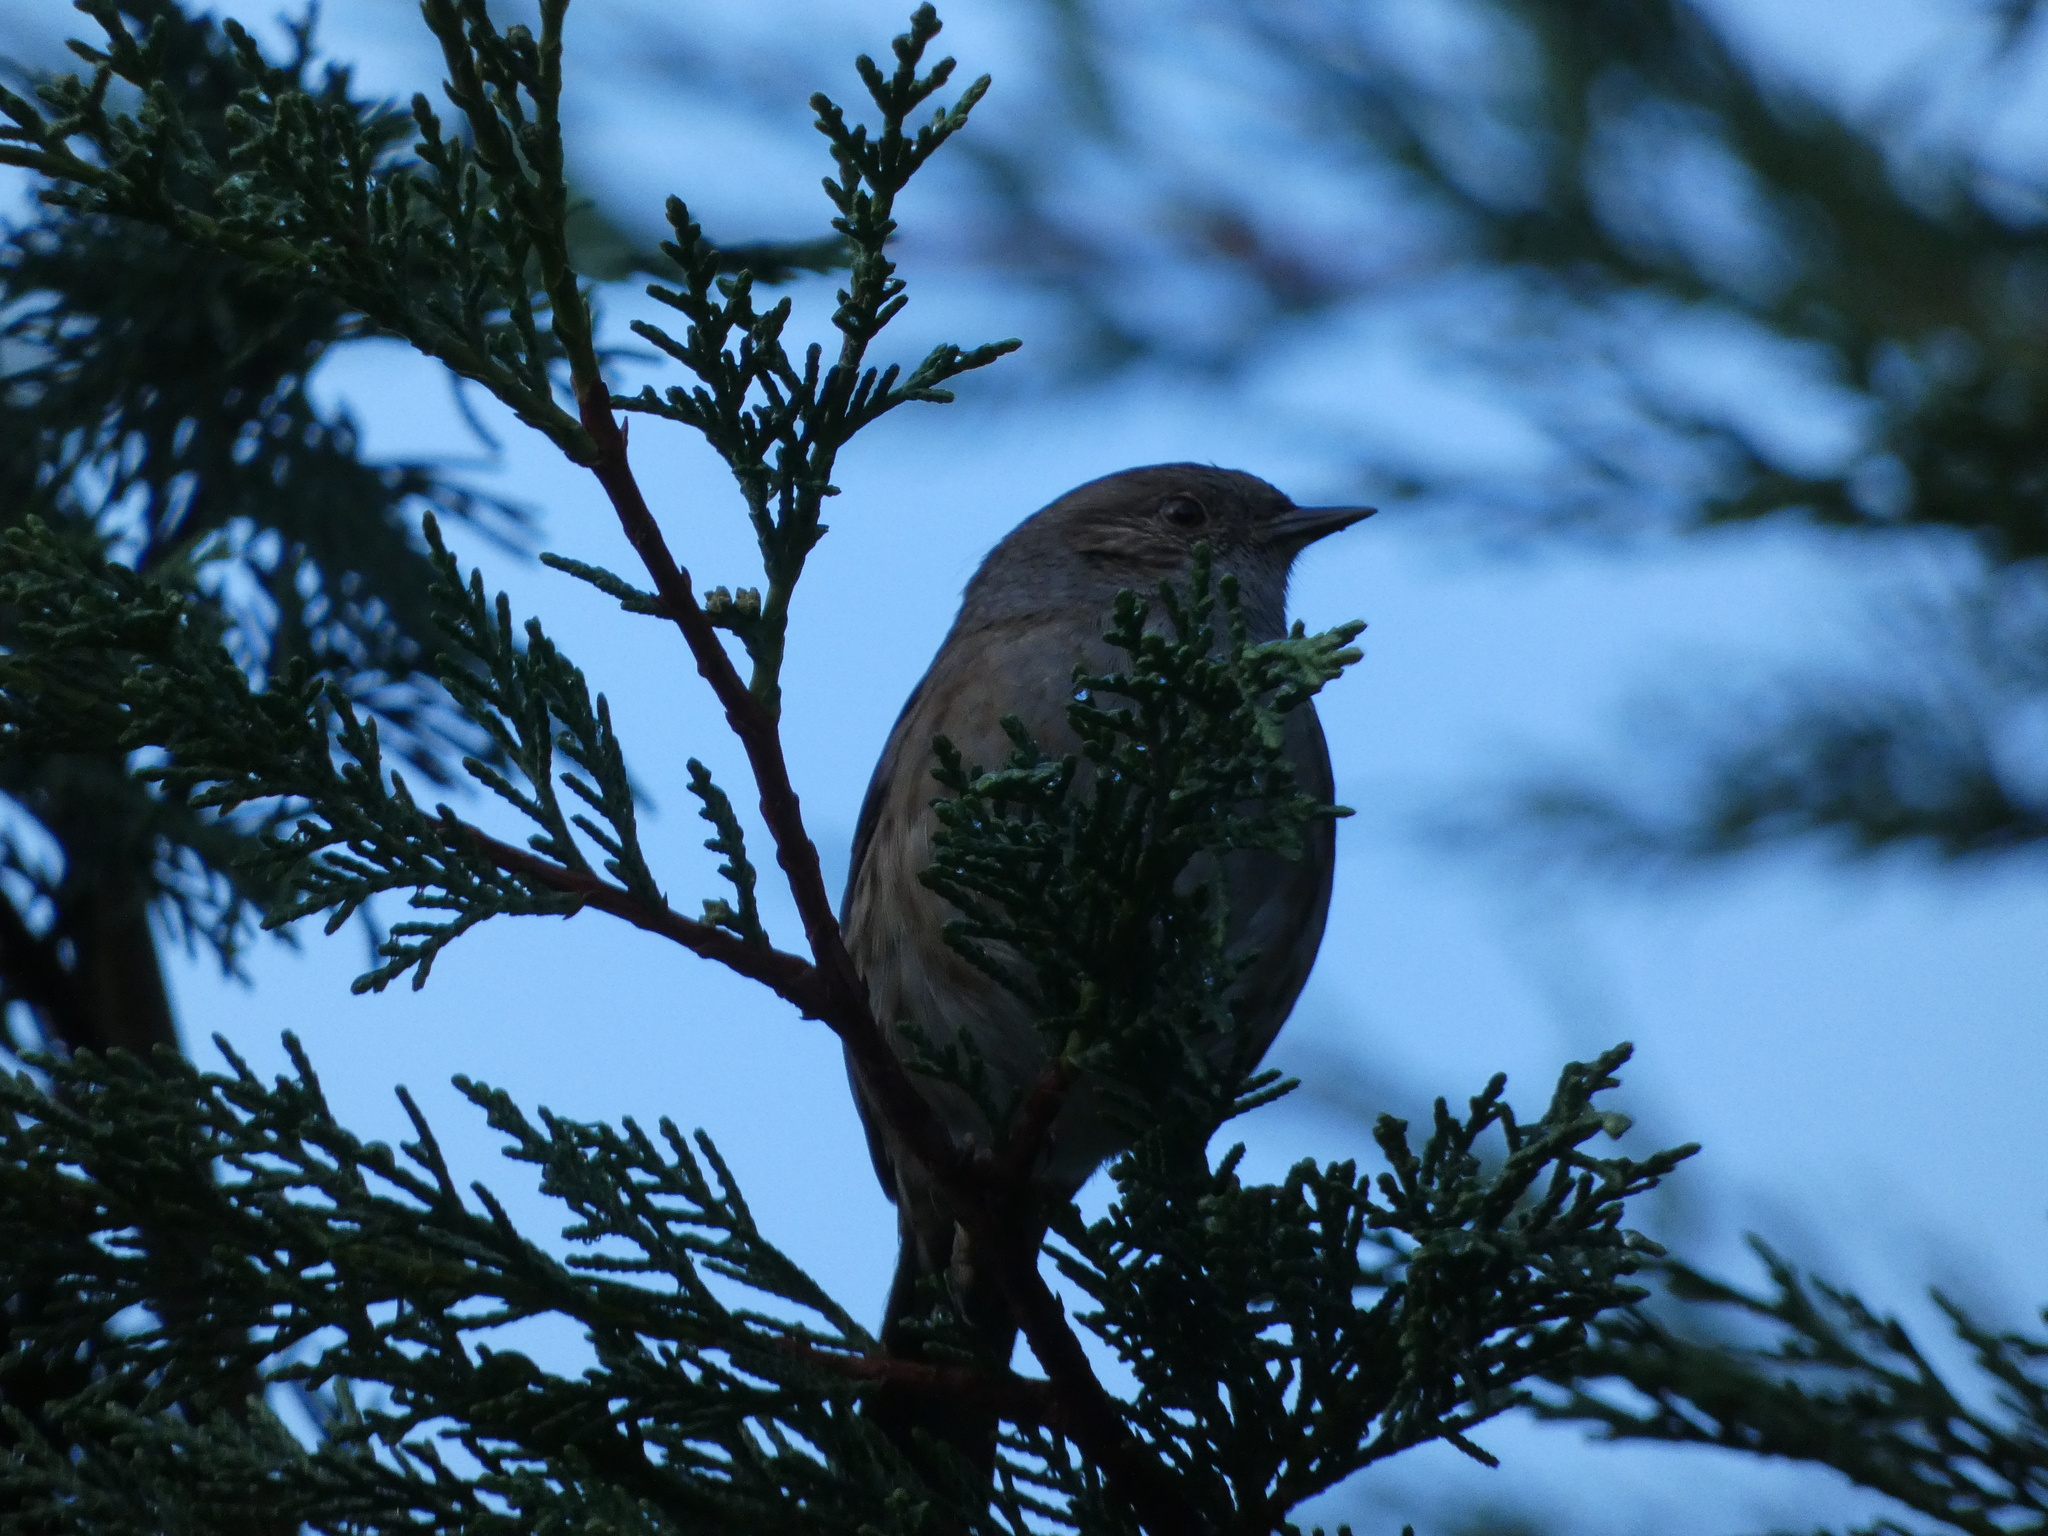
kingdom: Animalia
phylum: Chordata
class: Aves
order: Passeriformes
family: Prunellidae
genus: Prunella
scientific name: Prunella modularis
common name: Dunnock
